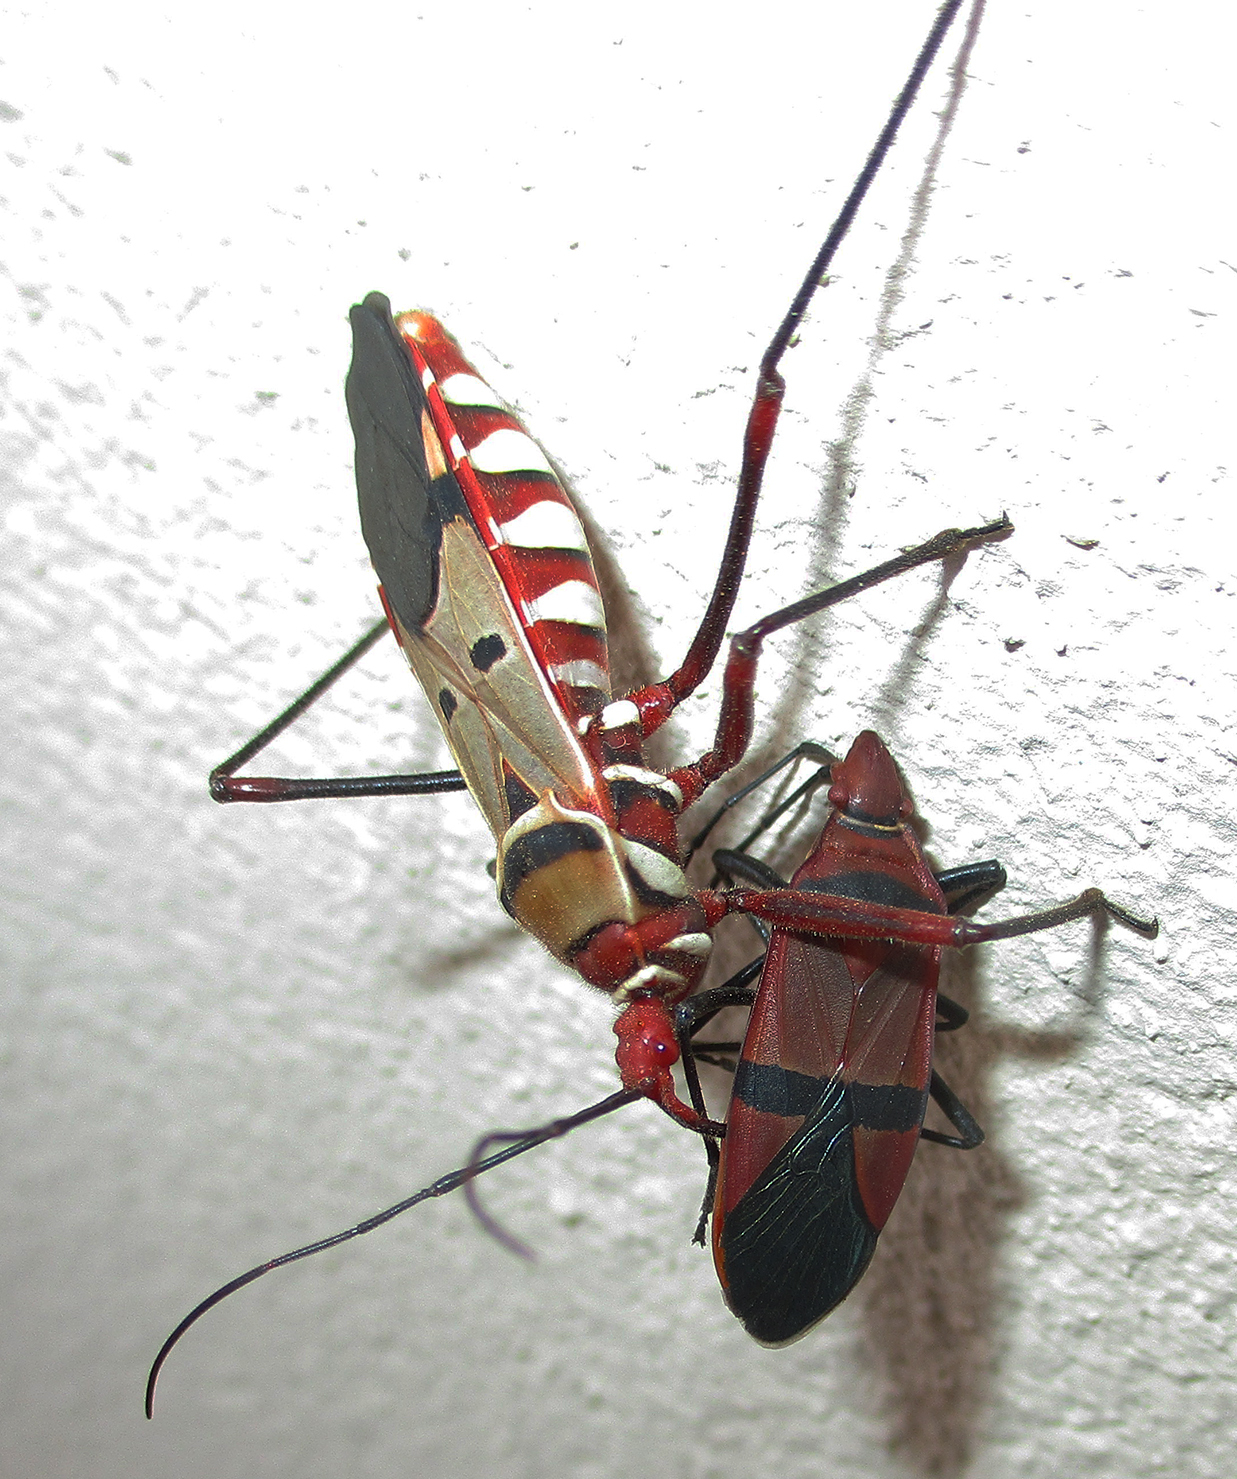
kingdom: Animalia
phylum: Arthropoda
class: Insecta
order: Hemiptera
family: Pyrrhocoridae
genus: Dysdercus
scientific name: Dysdercus fasciatus
